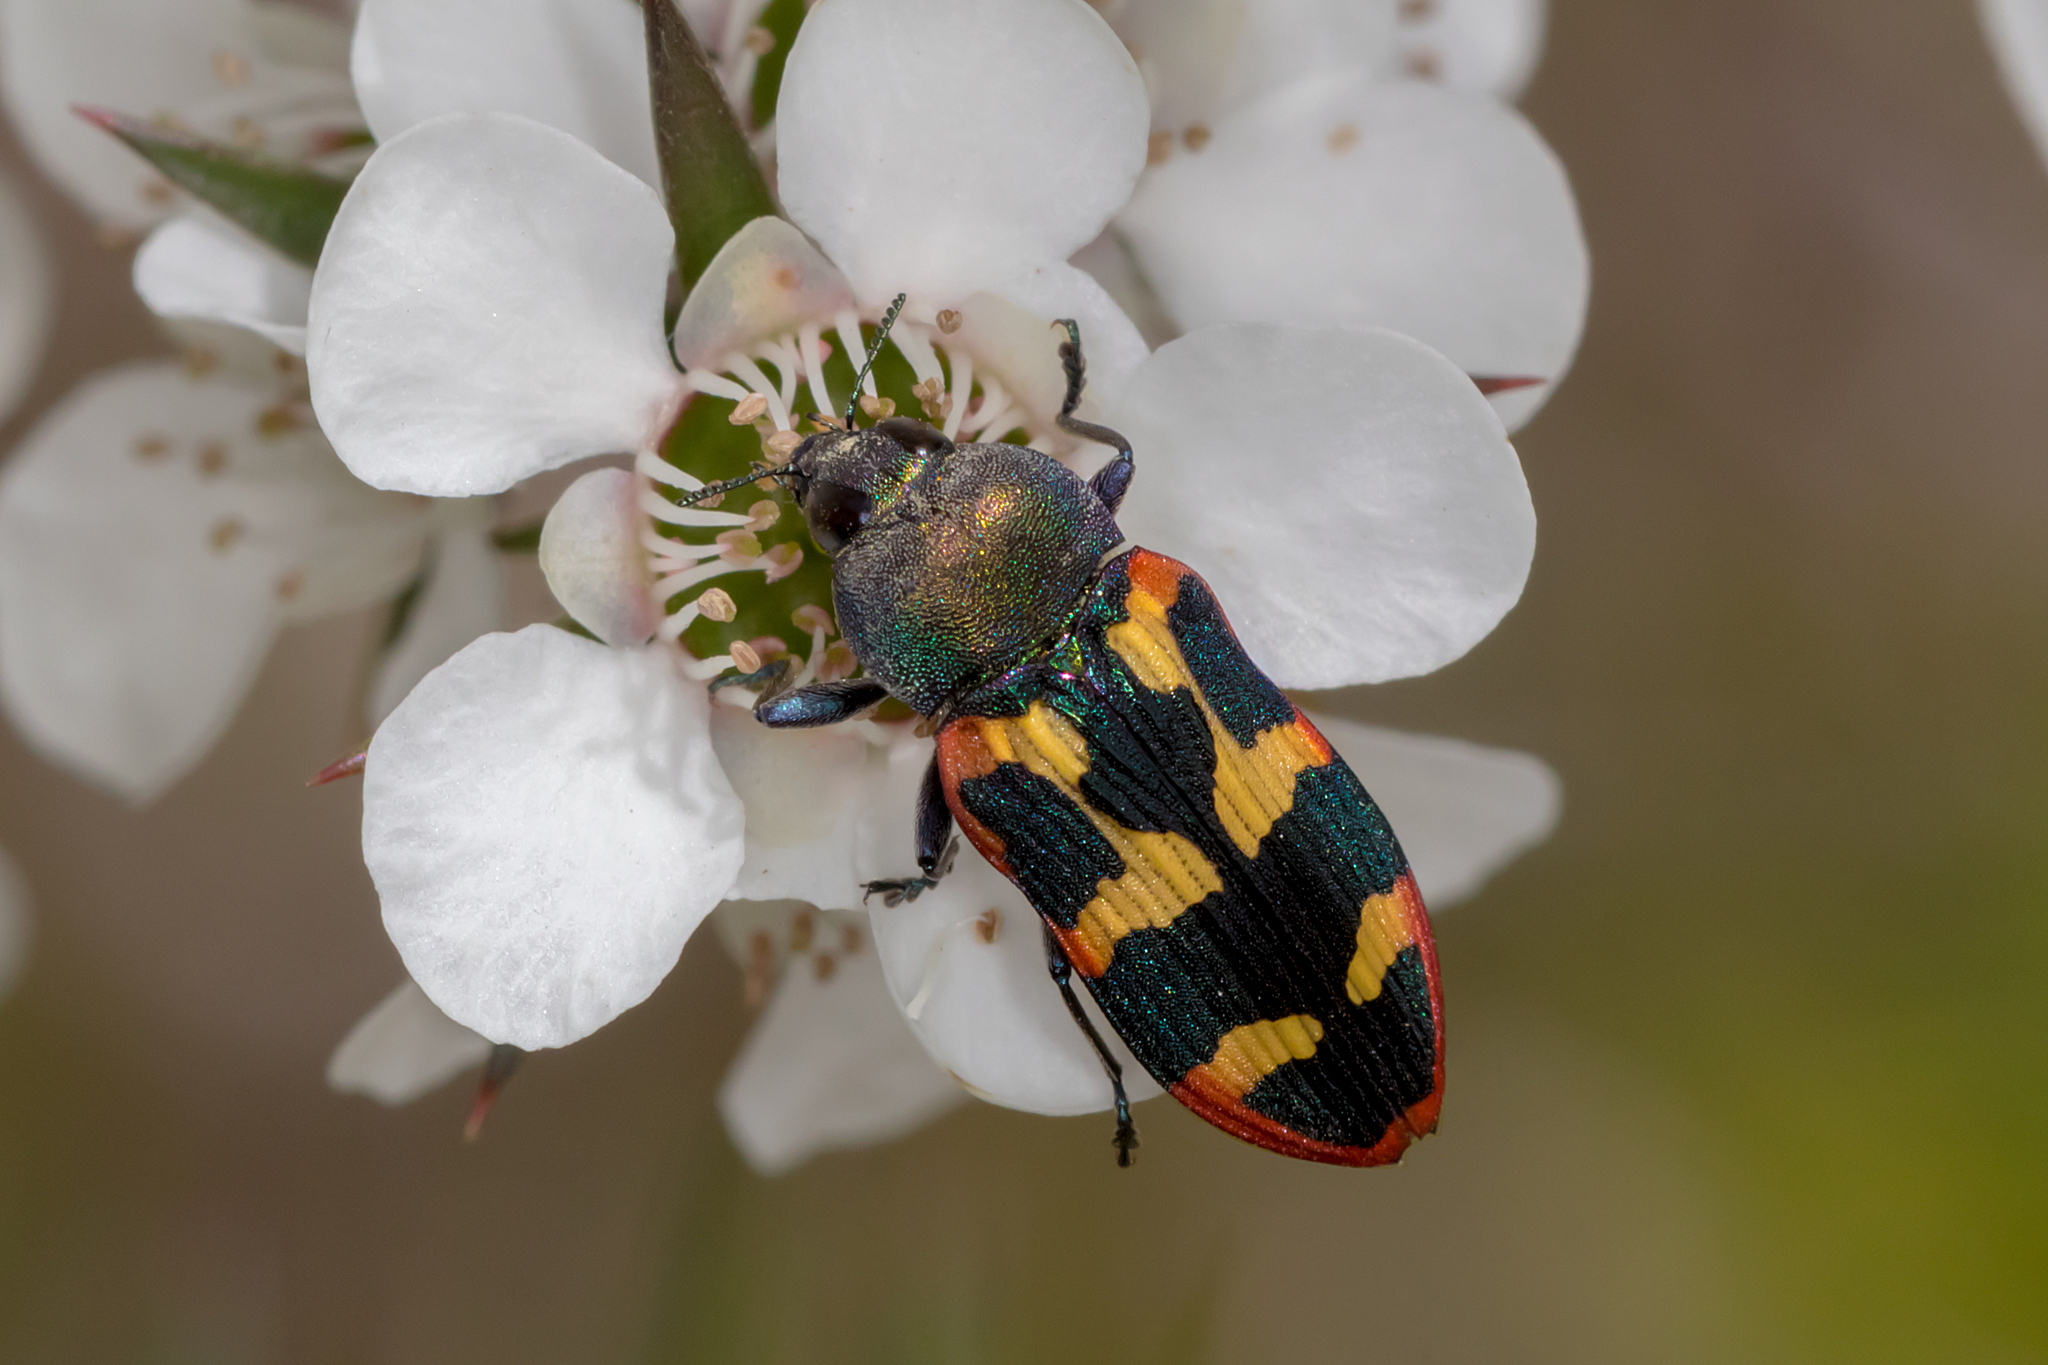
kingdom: Animalia
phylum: Arthropoda
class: Insecta
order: Coleoptera
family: Buprestidae
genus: Castiarina
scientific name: Castiarina sexplagiata
